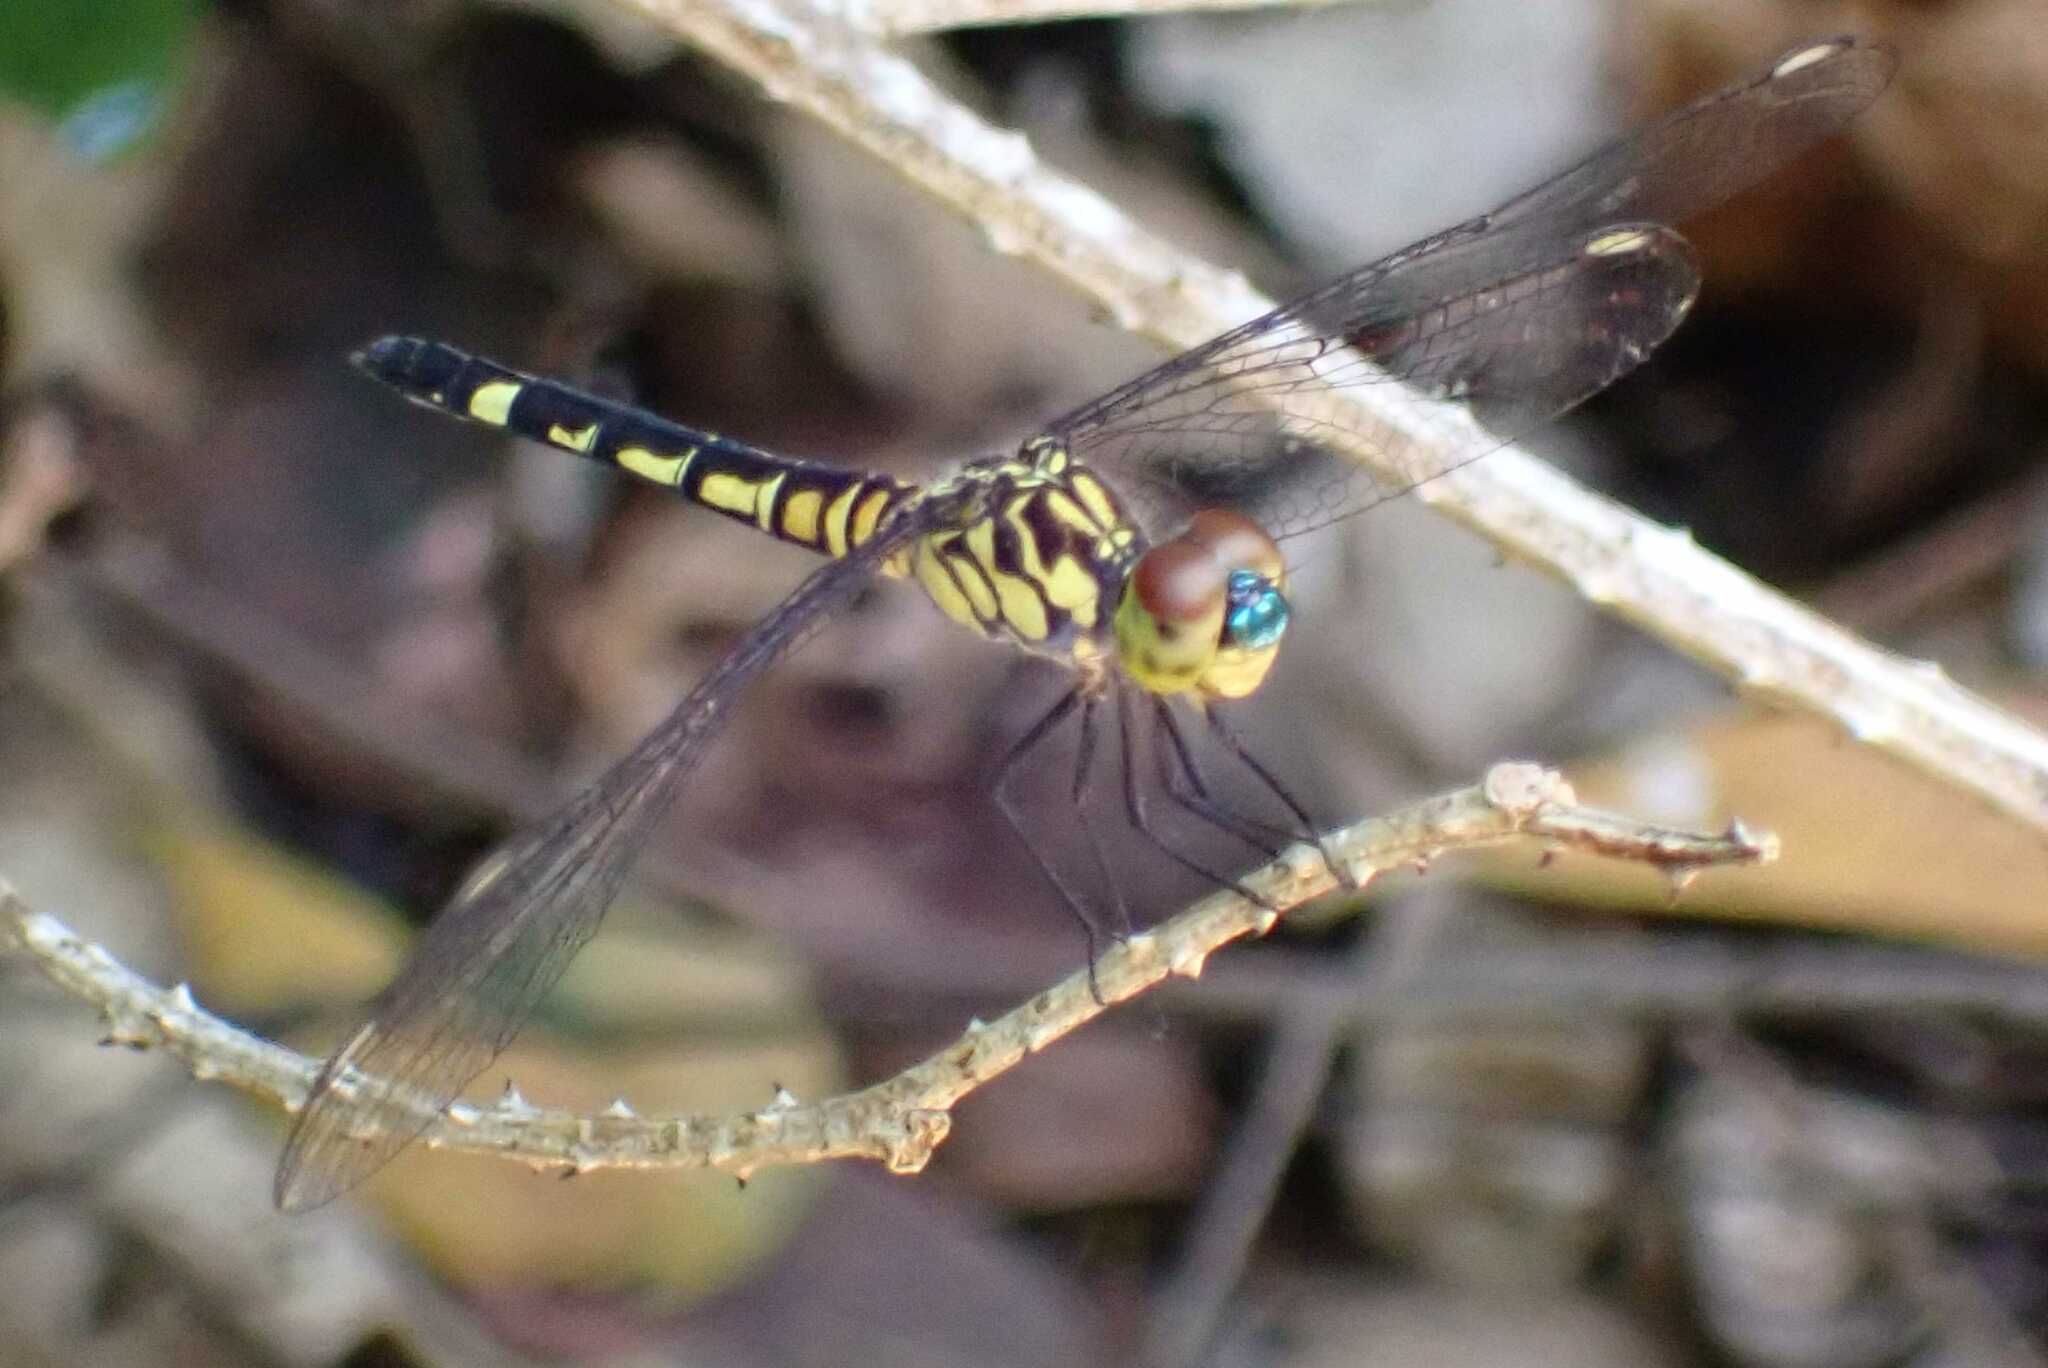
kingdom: Animalia
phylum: Arthropoda
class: Insecta
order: Odonata
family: Libellulidae
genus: Chalcostephia
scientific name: Chalcostephia flavifrons
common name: Inspector
